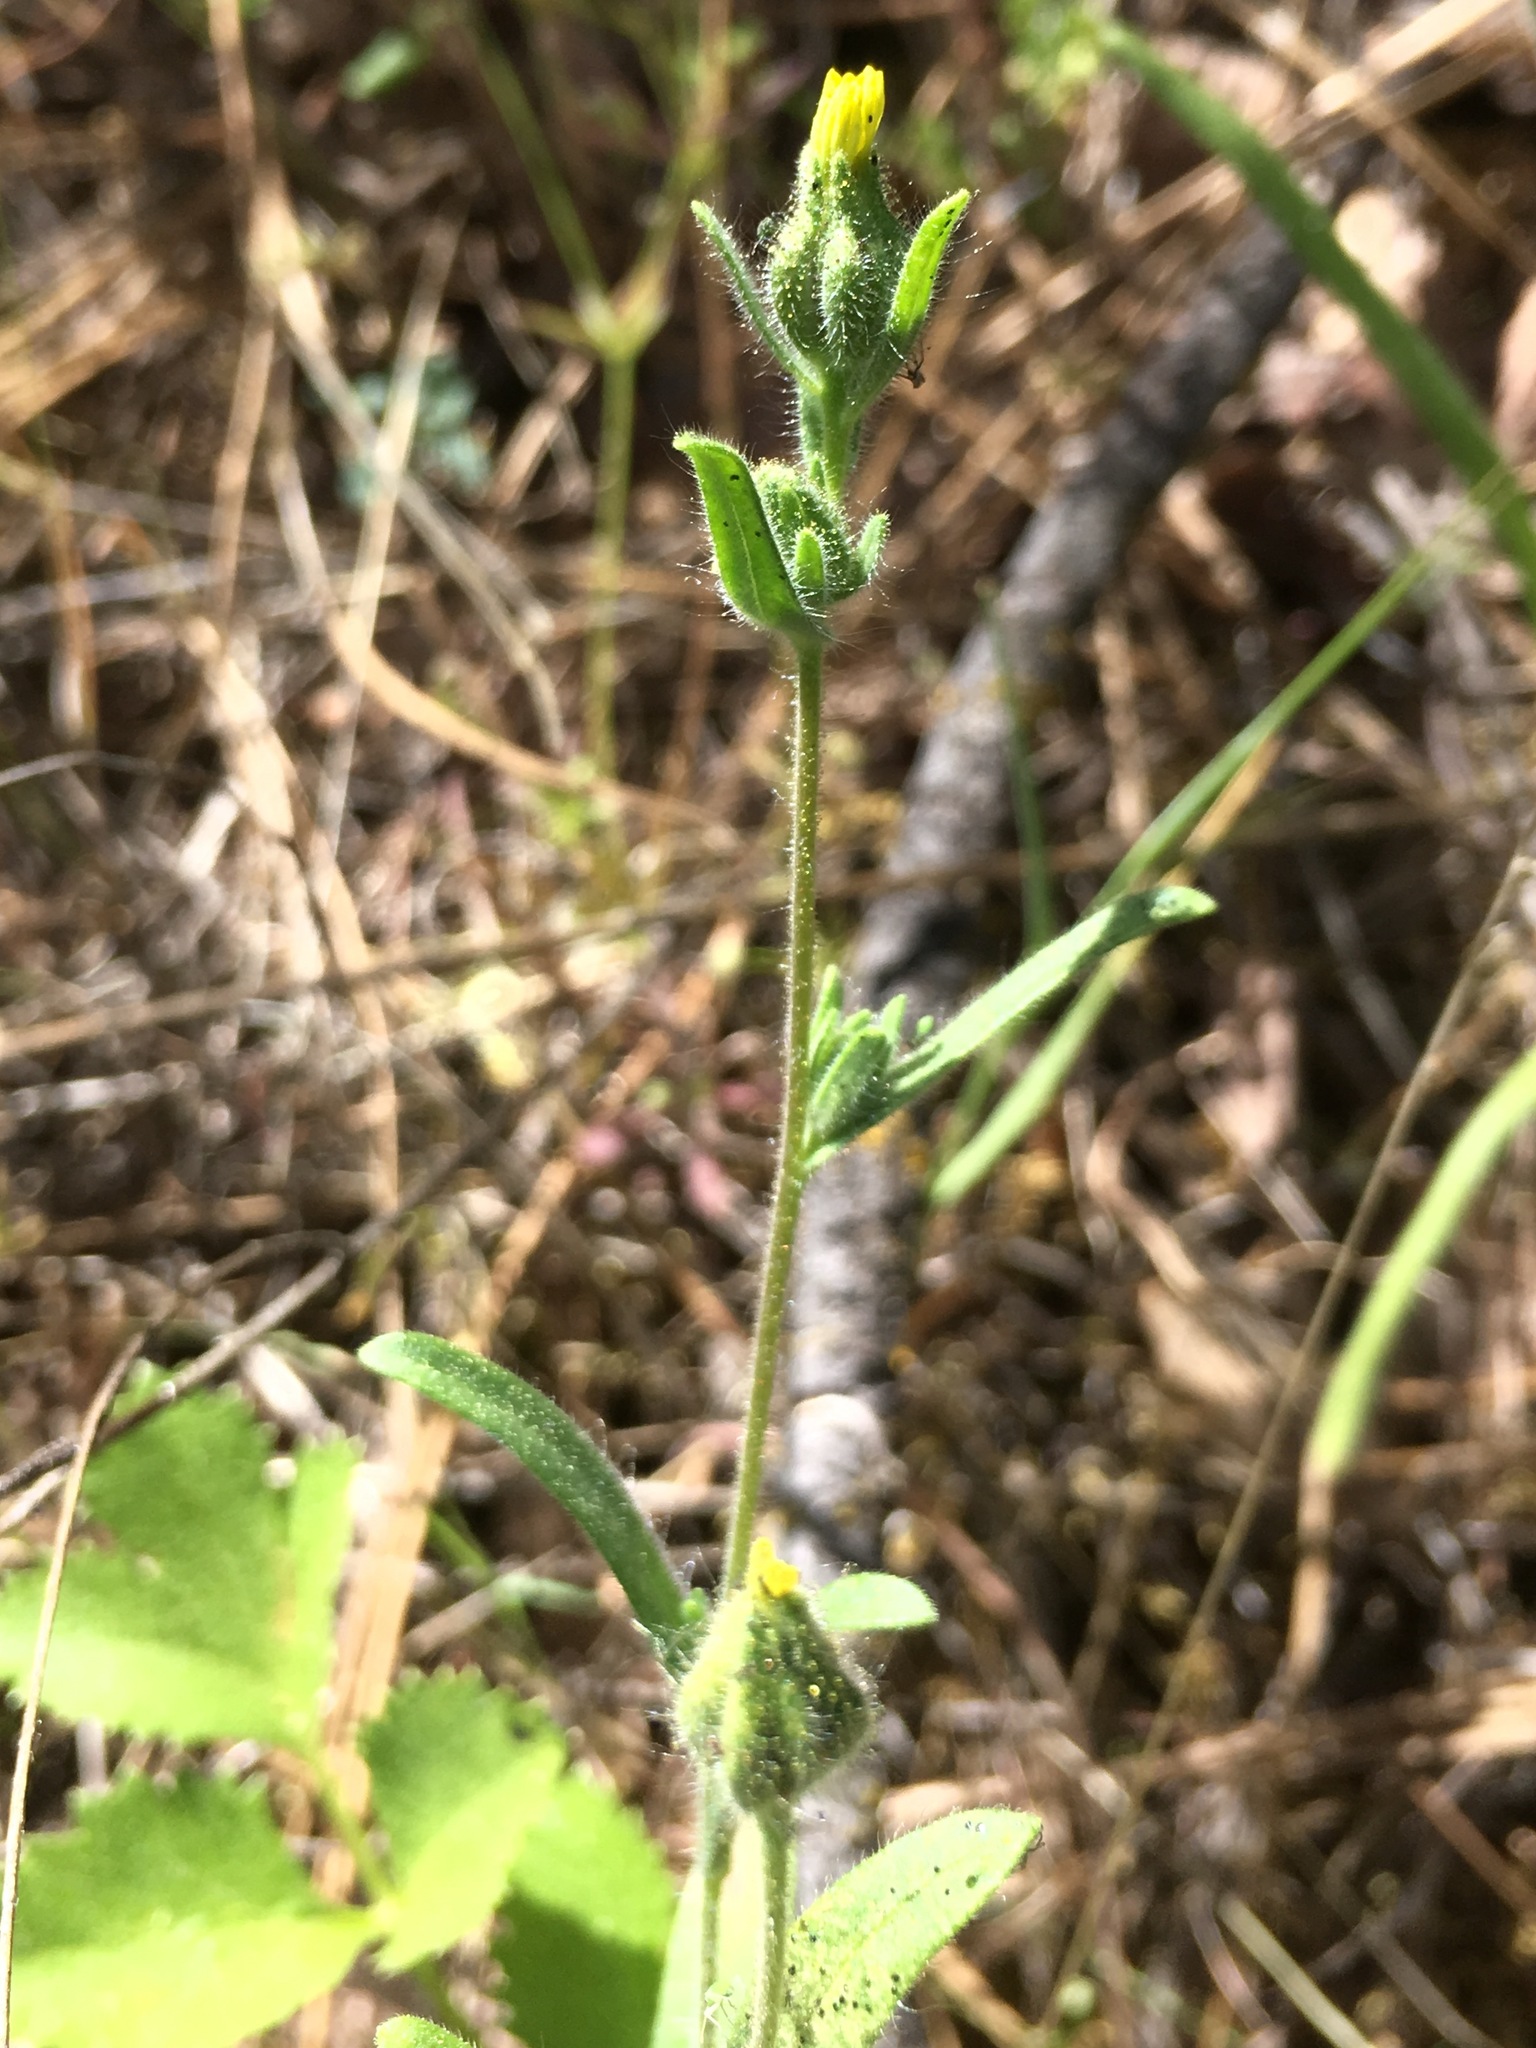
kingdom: Plantae
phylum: Tracheophyta
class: Magnoliopsida
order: Asterales
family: Asteraceae
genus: Madia
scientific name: Madia gracilis
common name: Grassy tarweed
